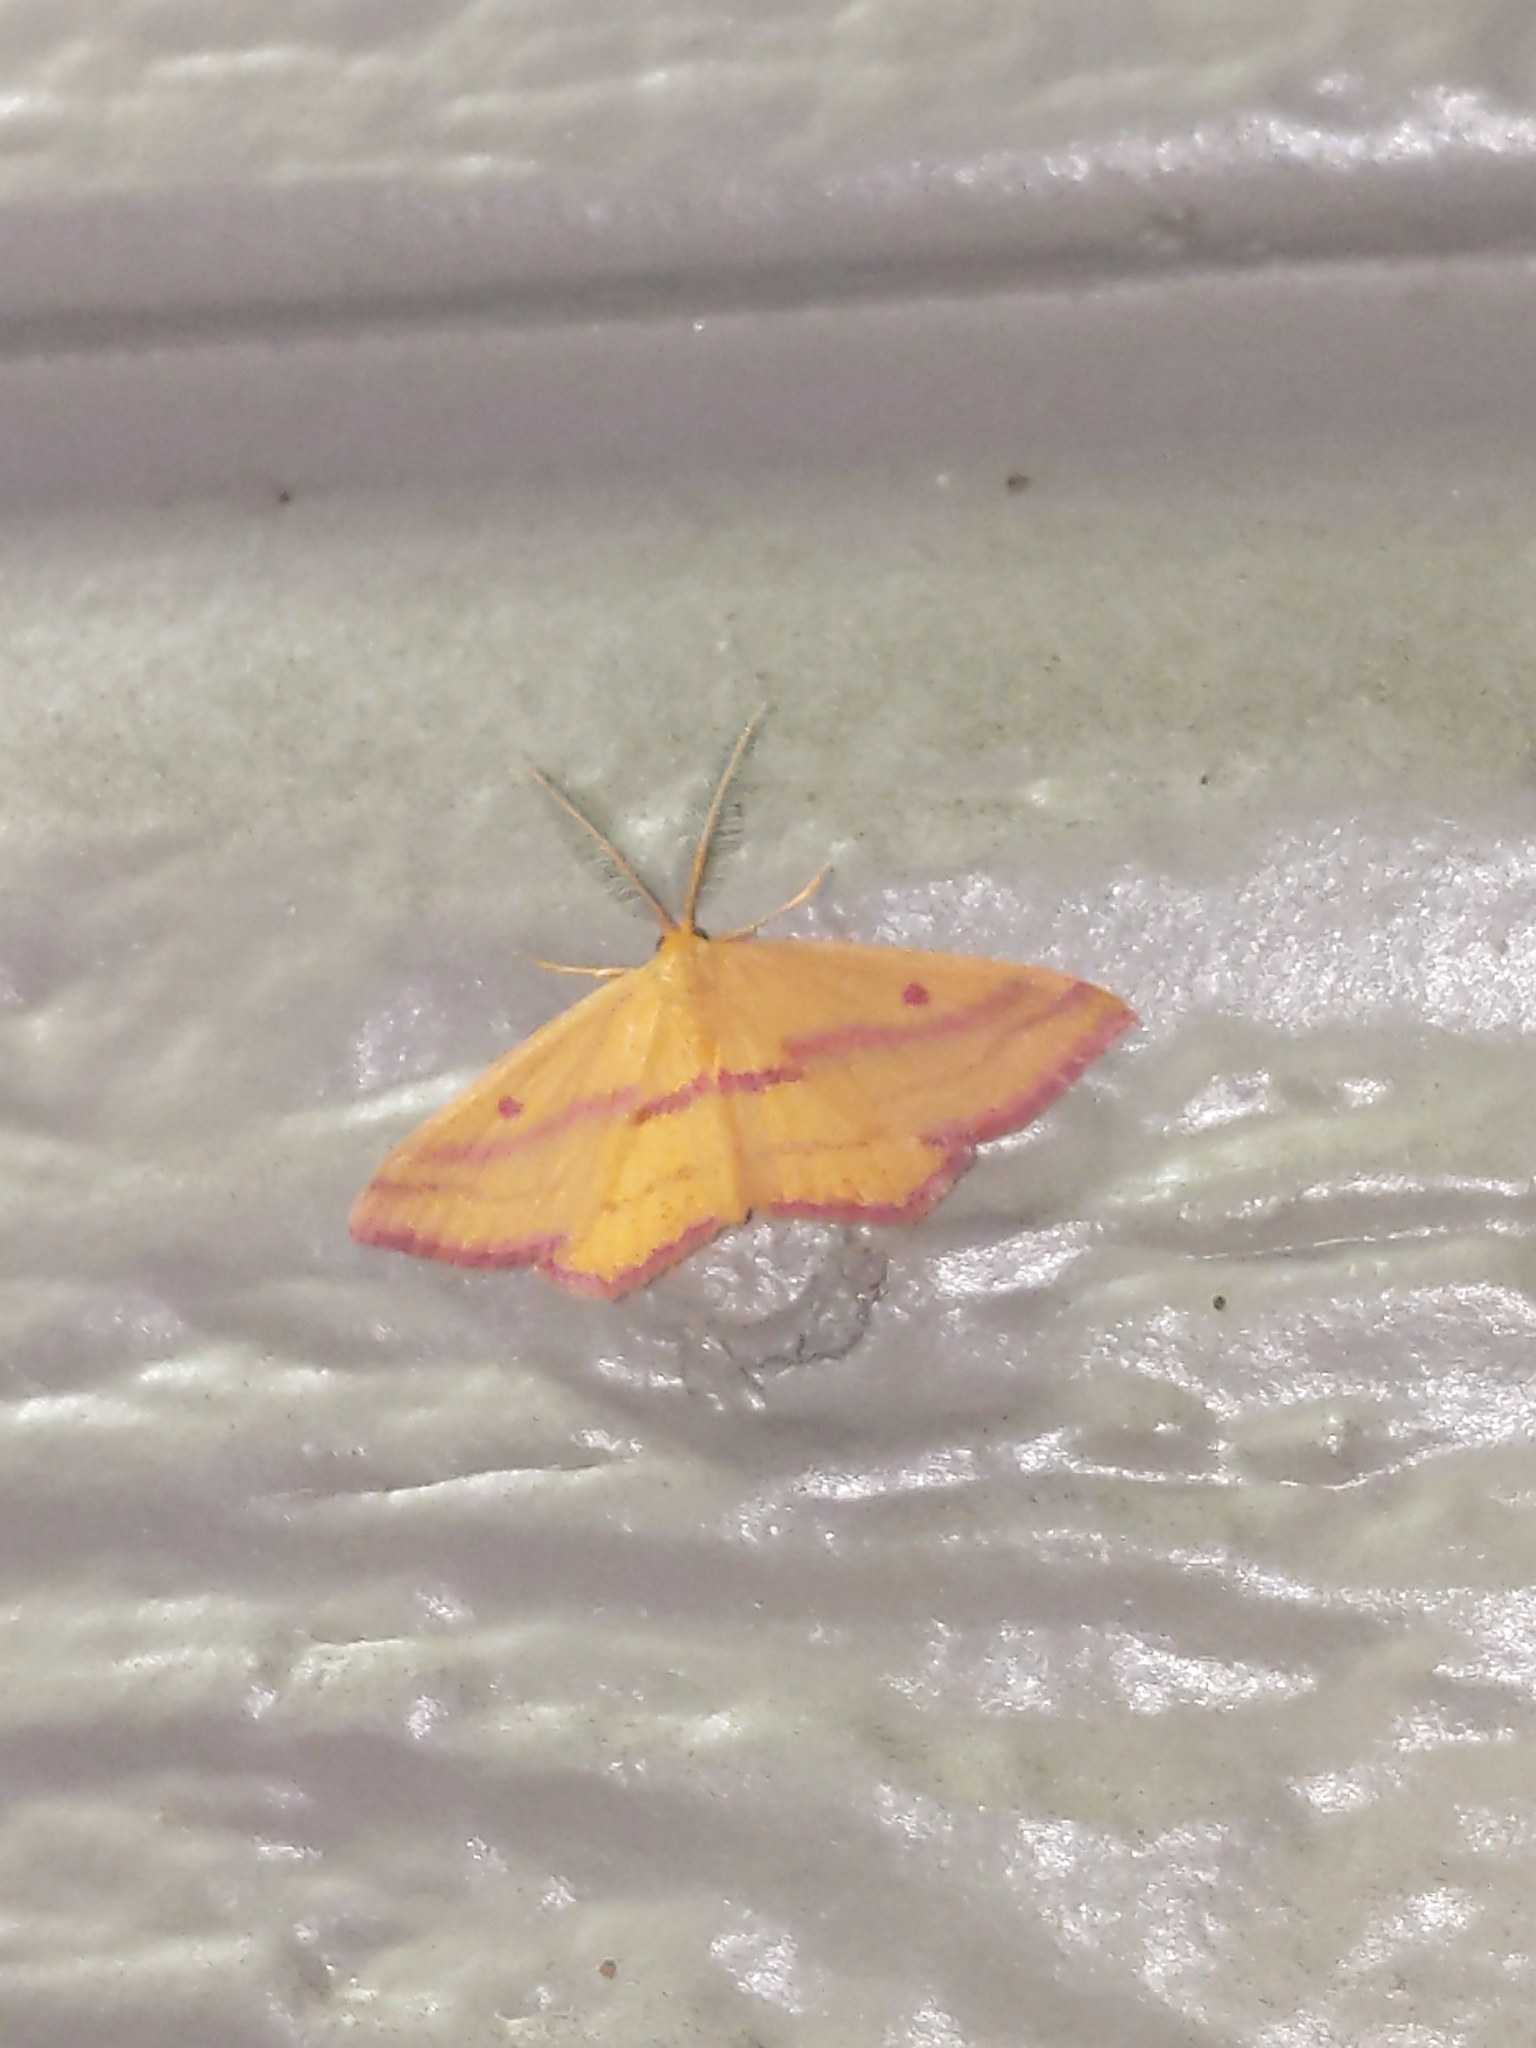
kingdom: Animalia
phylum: Arthropoda
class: Insecta
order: Lepidoptera
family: Geometridae
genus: Haematopis
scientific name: Haematopis grataria
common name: Chickweed geometer
